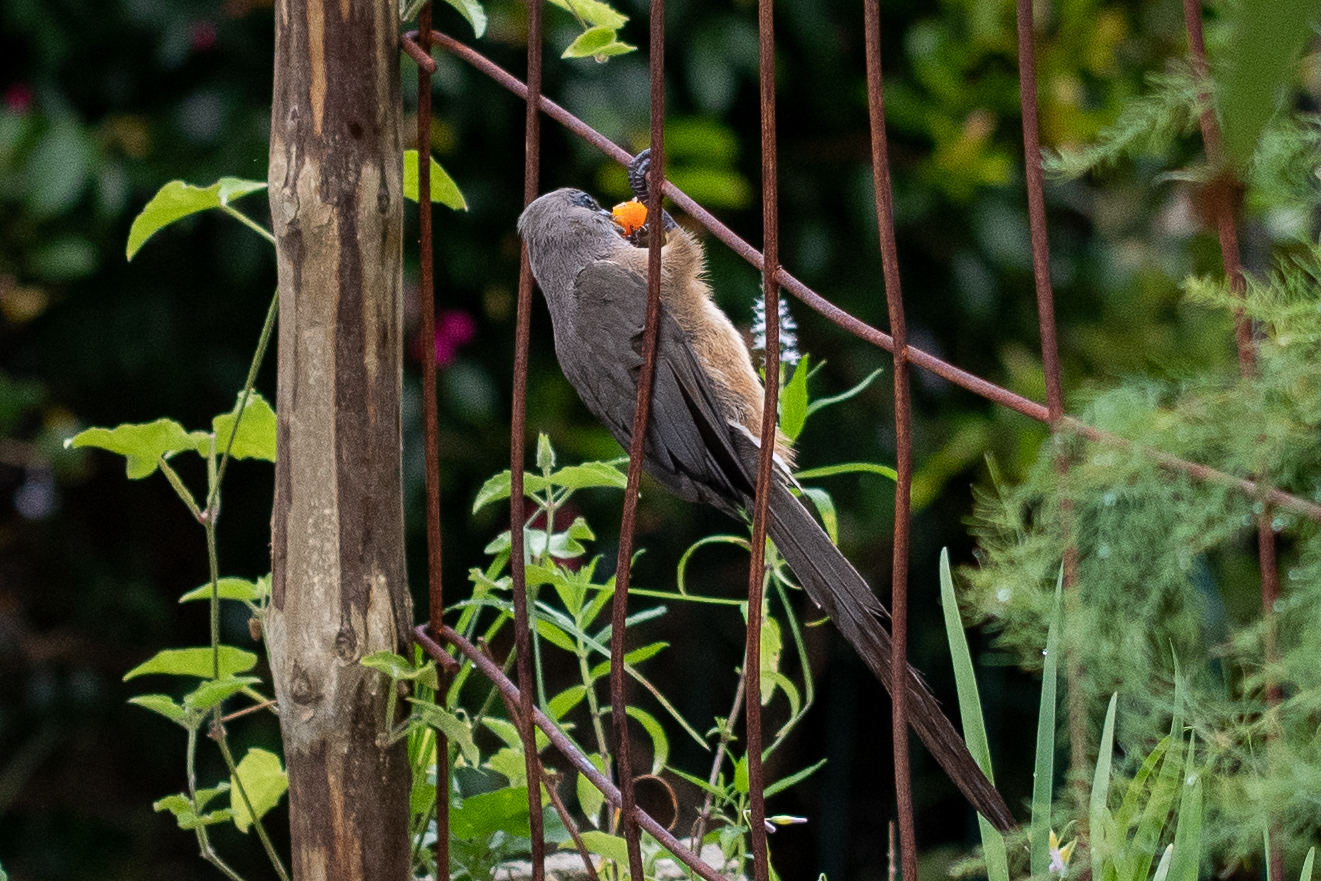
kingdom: Animalia
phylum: Chordata
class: Aves
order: Coliiformes
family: Coliidae
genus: Colius
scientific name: Colius striatus
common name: Speckled mousebird
